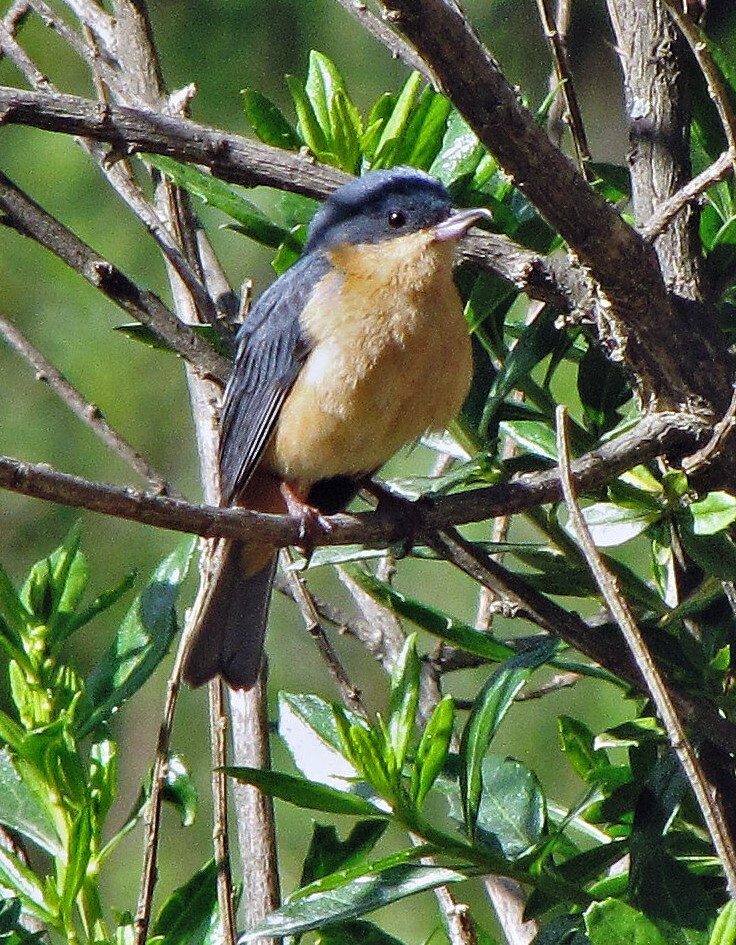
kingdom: Animalia
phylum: Chordata
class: Aves
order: Passeriformes
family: Thraupidae
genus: Diglossa
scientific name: Diglossa sittoides
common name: Rusty flowerpiercer
